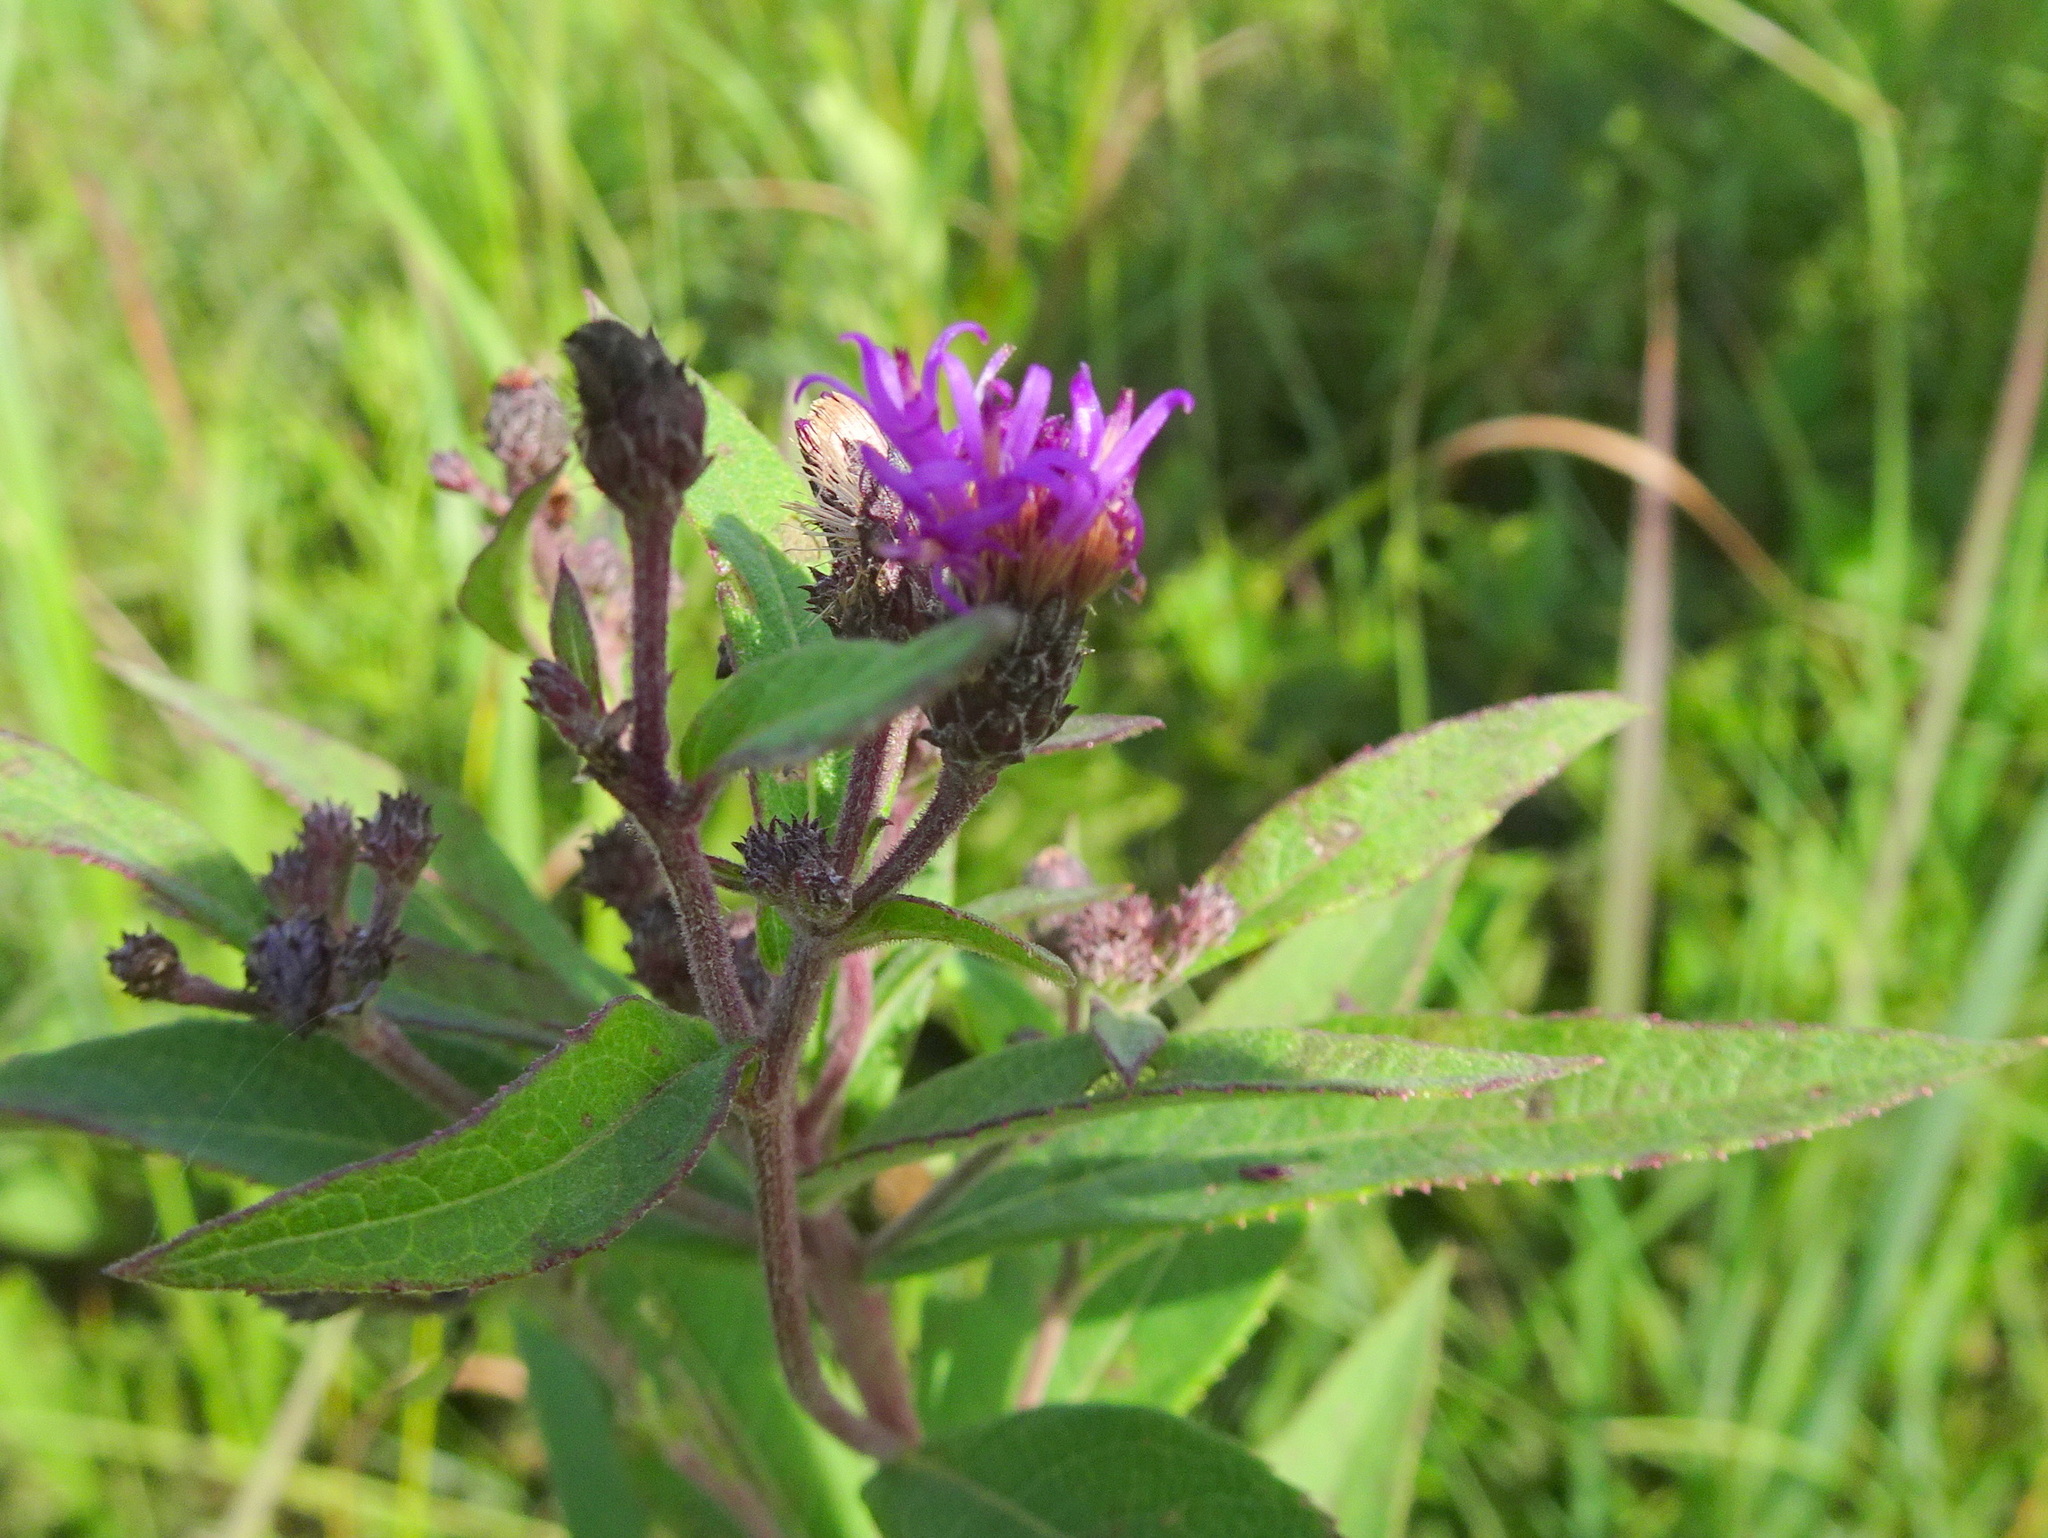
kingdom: Plantae
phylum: Tracheophyta
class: Magnoliopsida
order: Asterales
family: Asteraceae
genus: Vernonia
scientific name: Vernonia baldwinii
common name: Western ironweed
